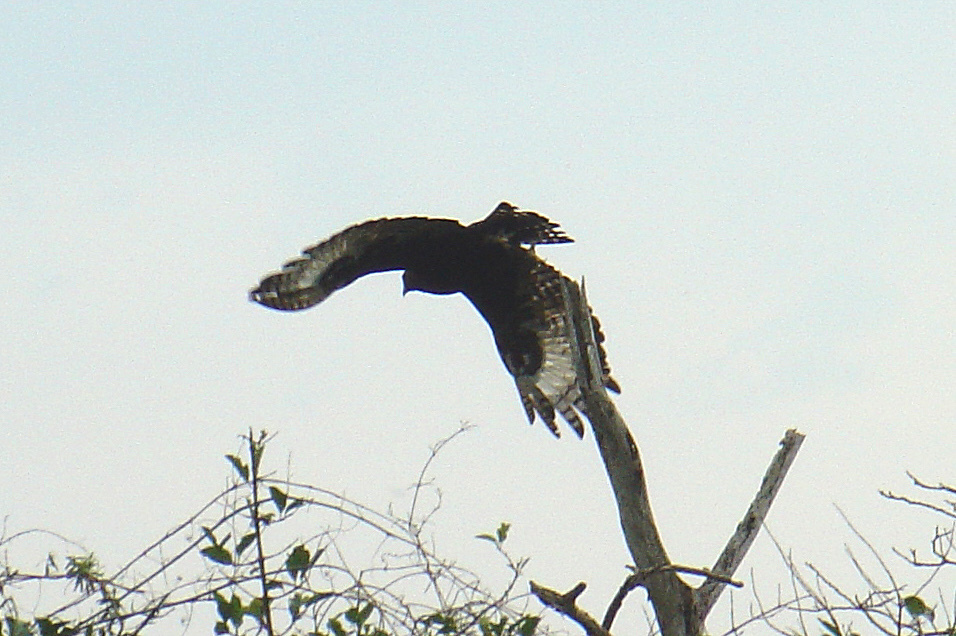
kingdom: Animalia
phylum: Chordata
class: Aves
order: Accipitriformes
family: Accipitridae
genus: Lophaetus
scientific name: Lophaetus occipitalis
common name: Long-crested eagle
